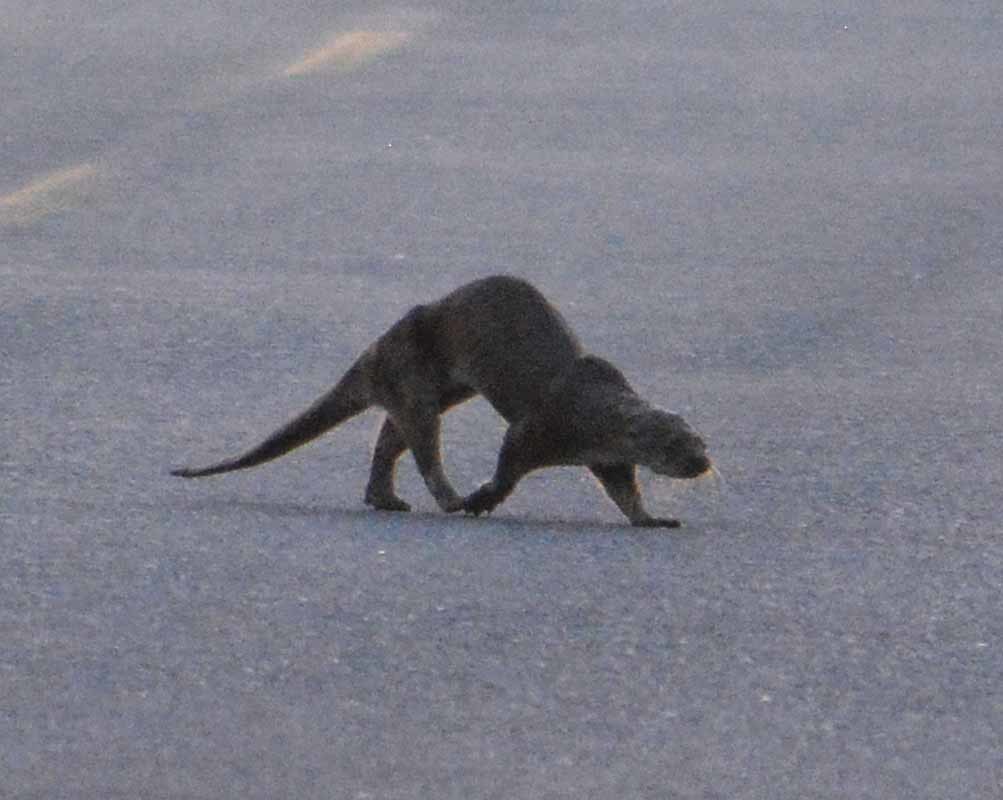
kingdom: Animalia
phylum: Chordata
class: Mammalia
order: Carnivora
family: Mustelidae
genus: Lontra
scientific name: Lontra longicaudis
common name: Neotropical otter
